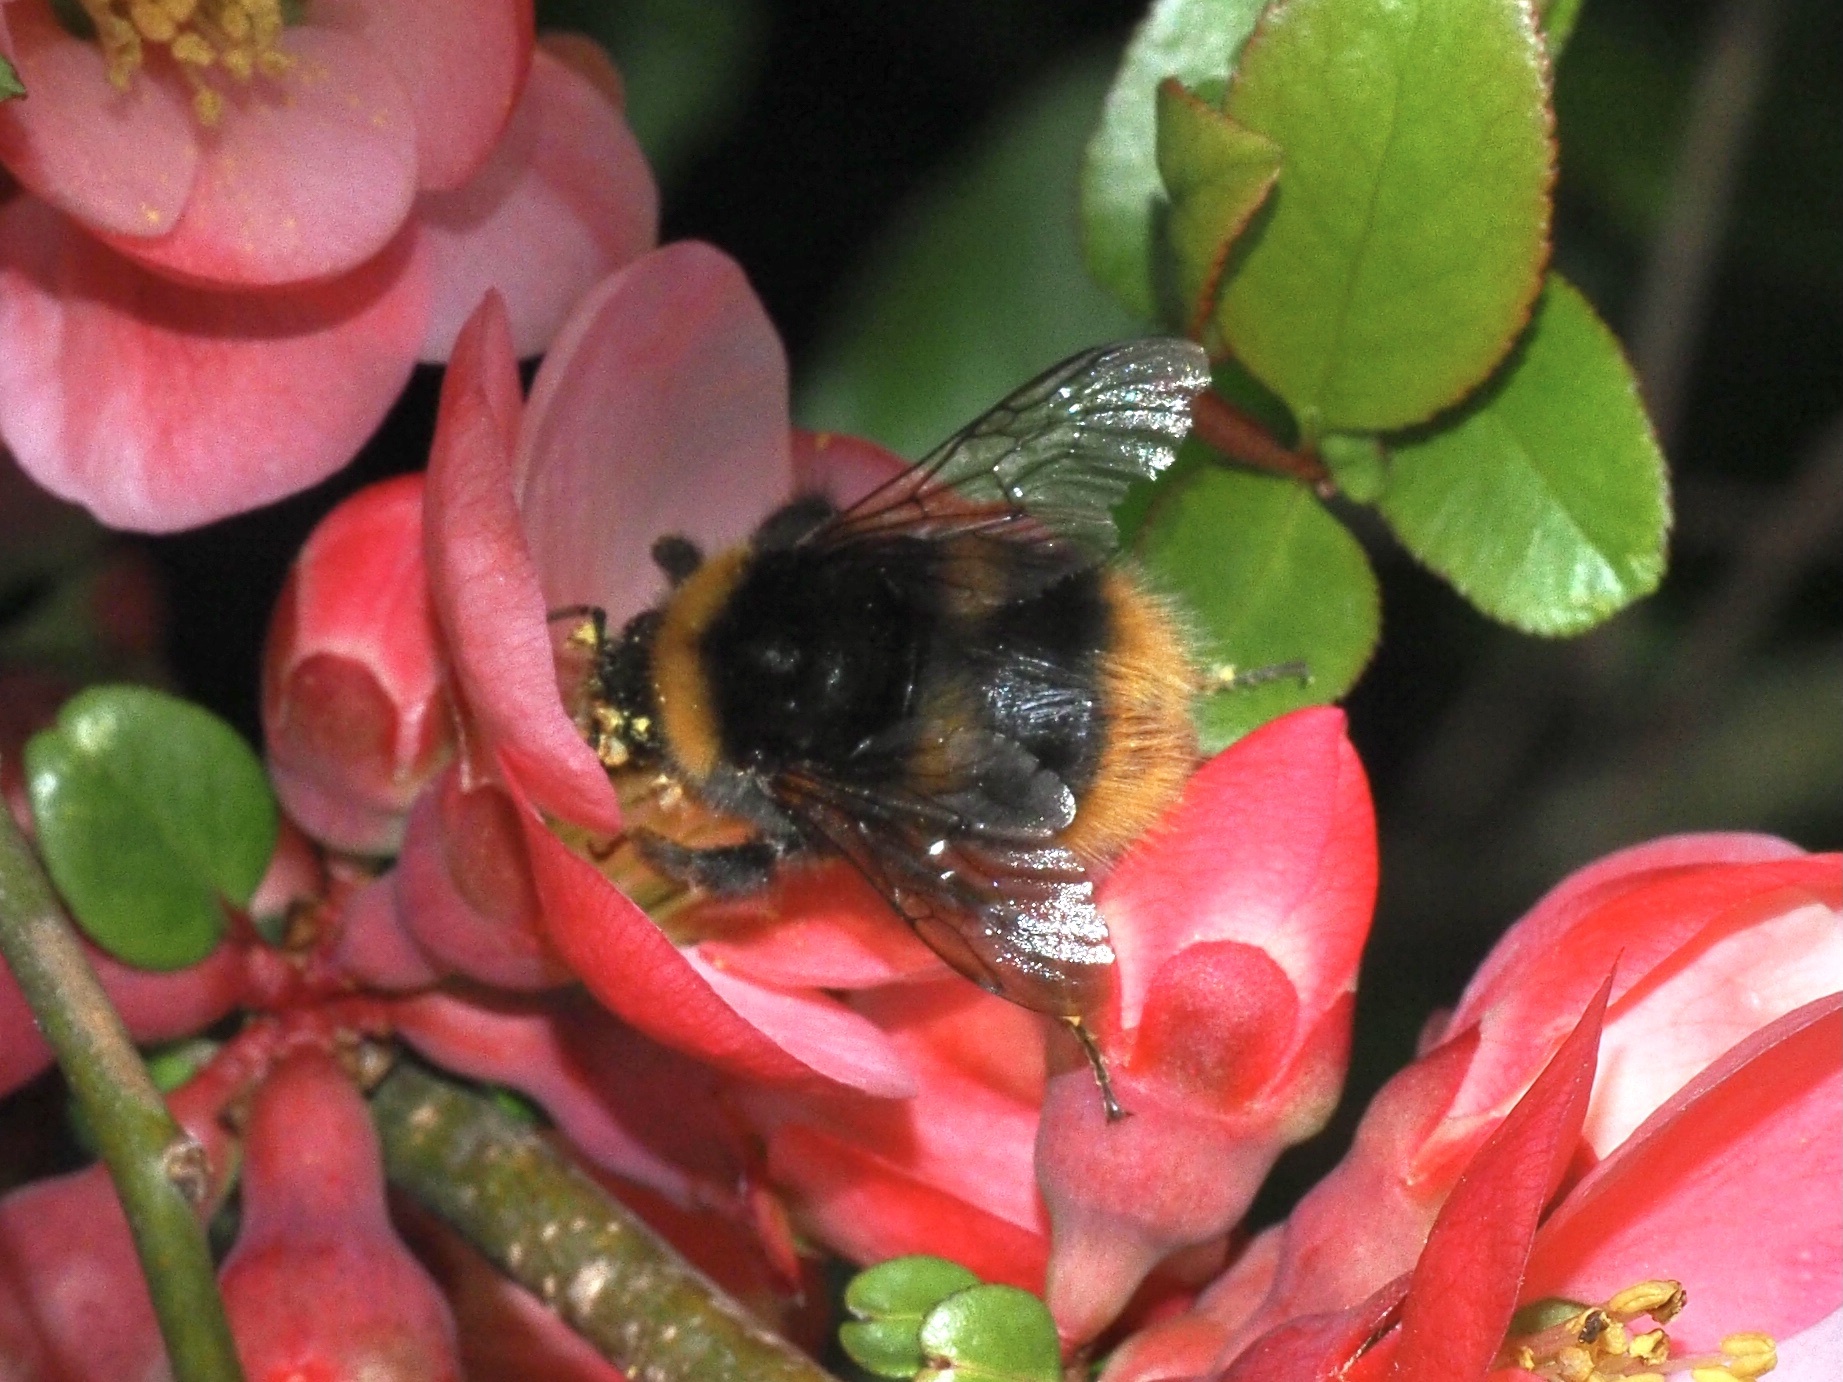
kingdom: Animalia
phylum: Arthropoda
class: Insecta
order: Hymenoptera
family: Apidae
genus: Bombus
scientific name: Bombus pratorum
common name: Early humble-bee
